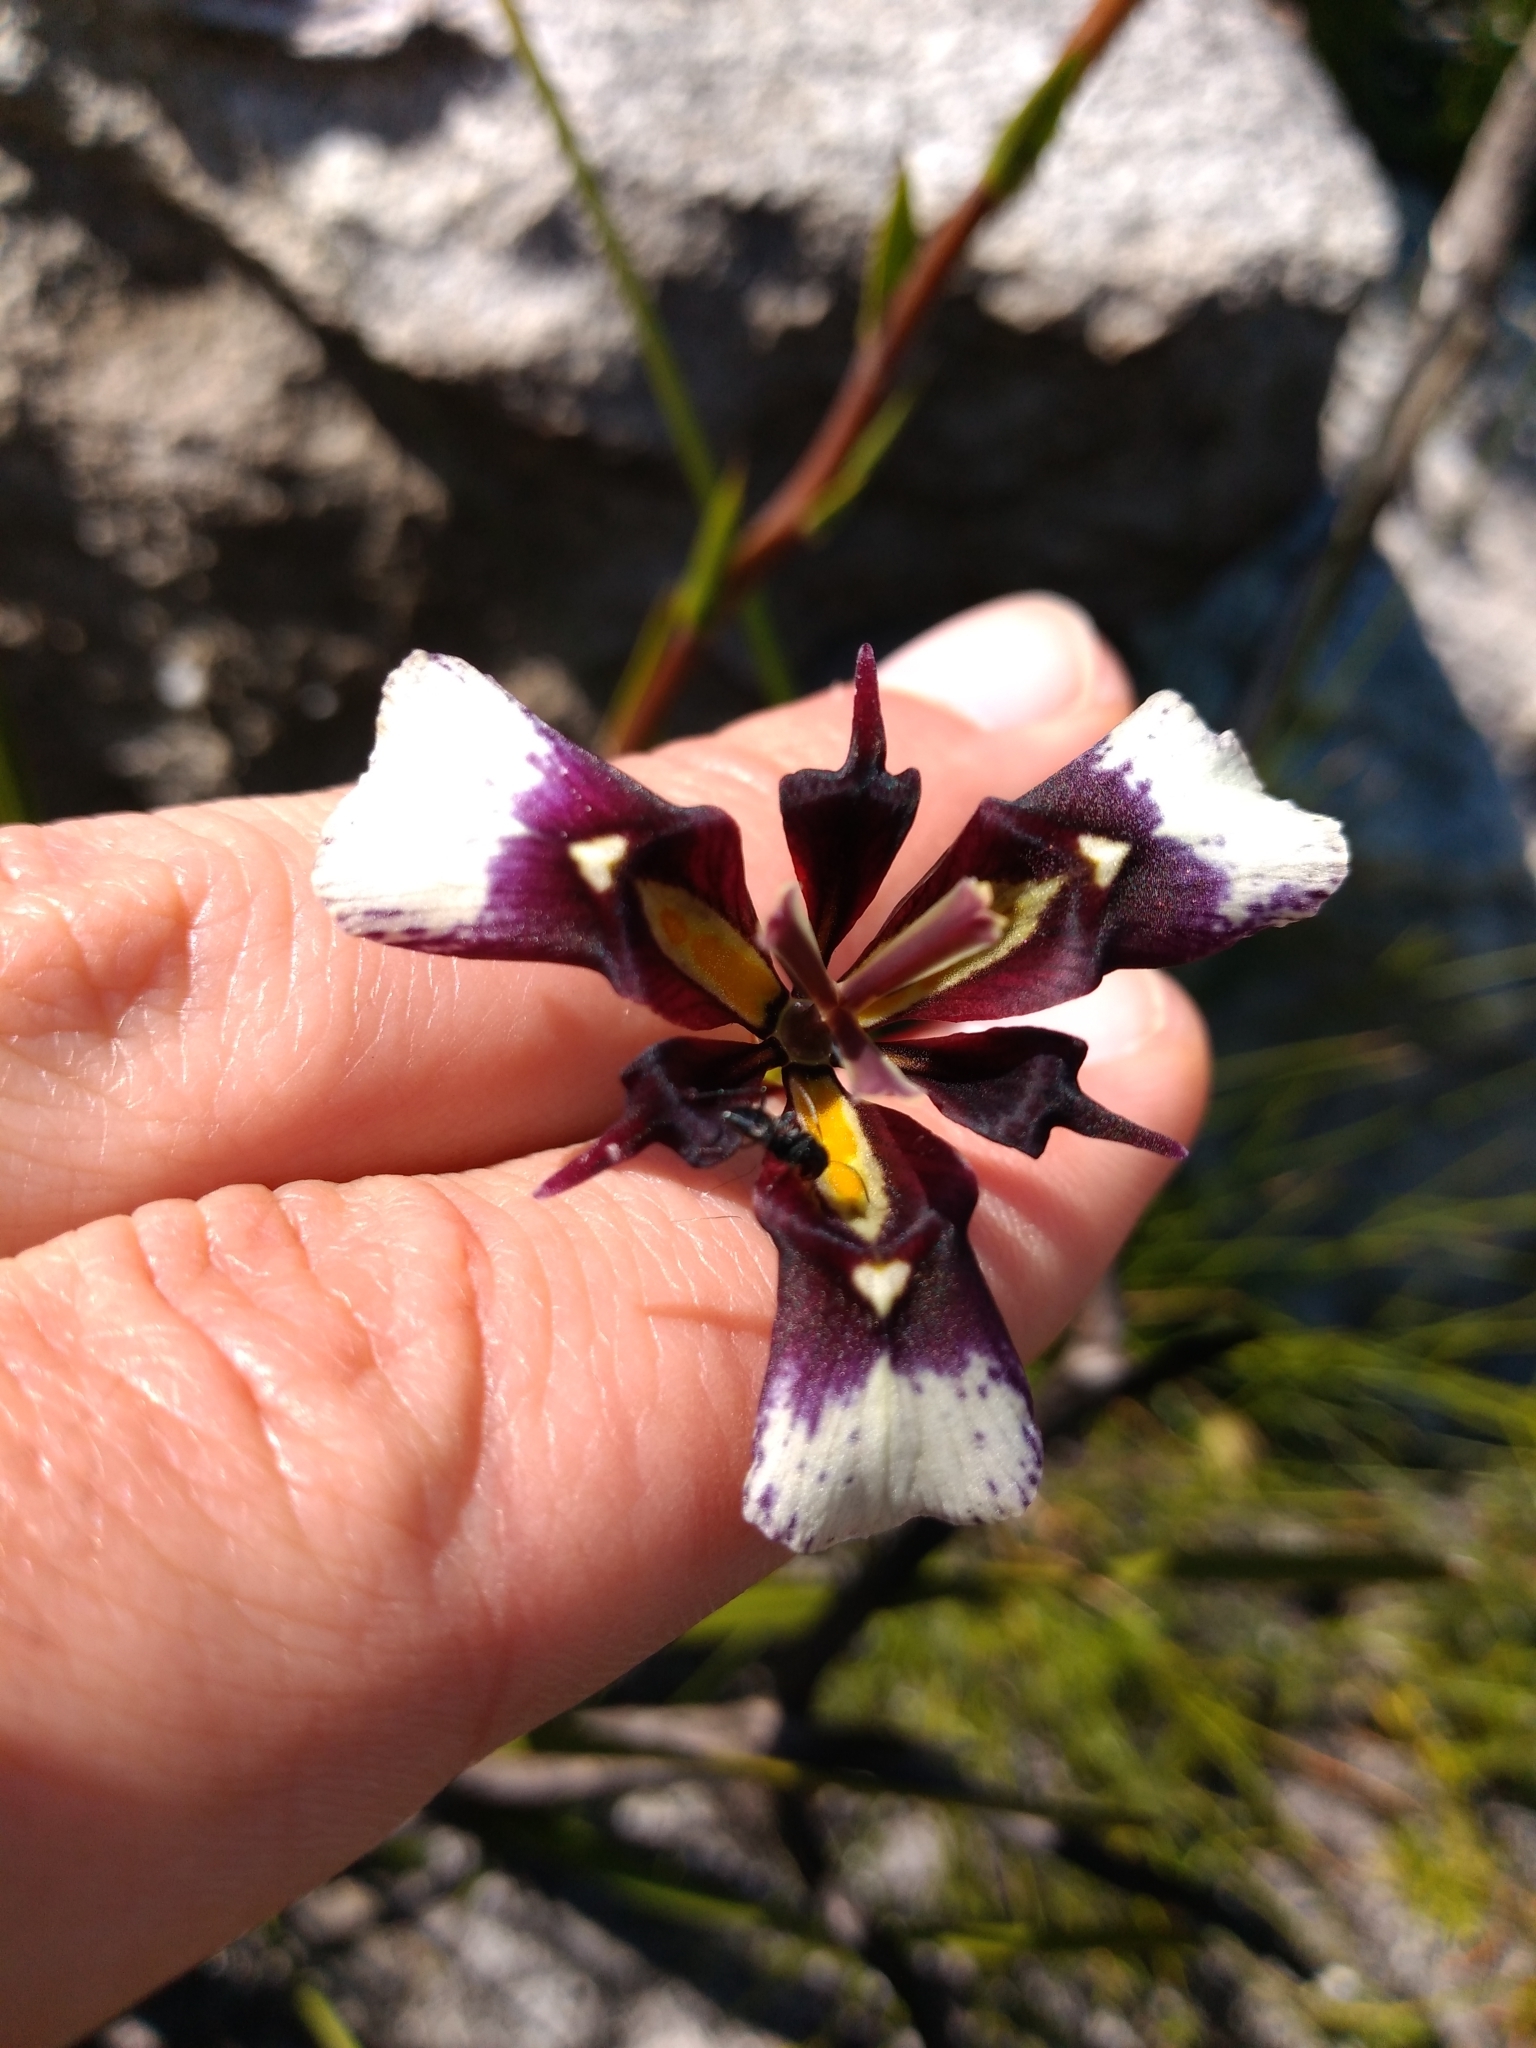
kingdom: Plantae
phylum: Tracheophyta
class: Liliopsida
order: Asparagales
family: Iridaceae
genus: Moraea
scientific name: Moraea lurida
